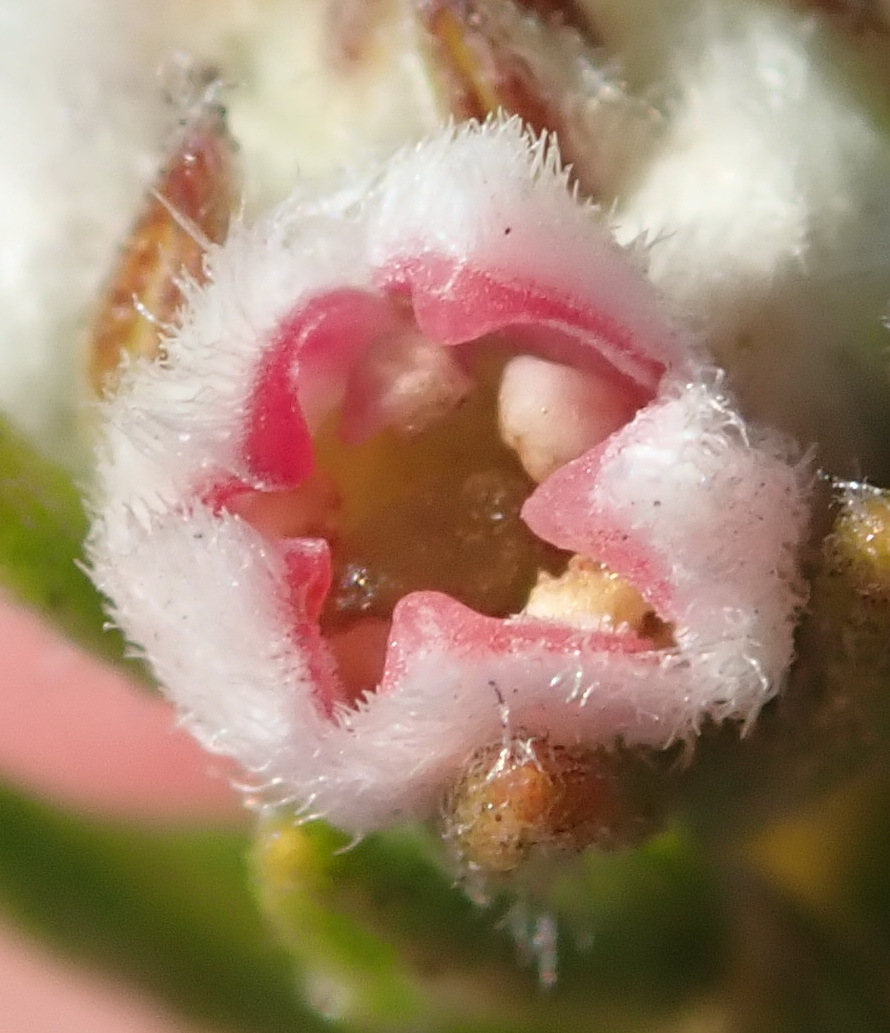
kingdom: Plantae
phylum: Tracheophyta
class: Magnoliopsida
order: Rosales
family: Rhamnaceae
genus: Phylica
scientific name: Phylica purpurea
